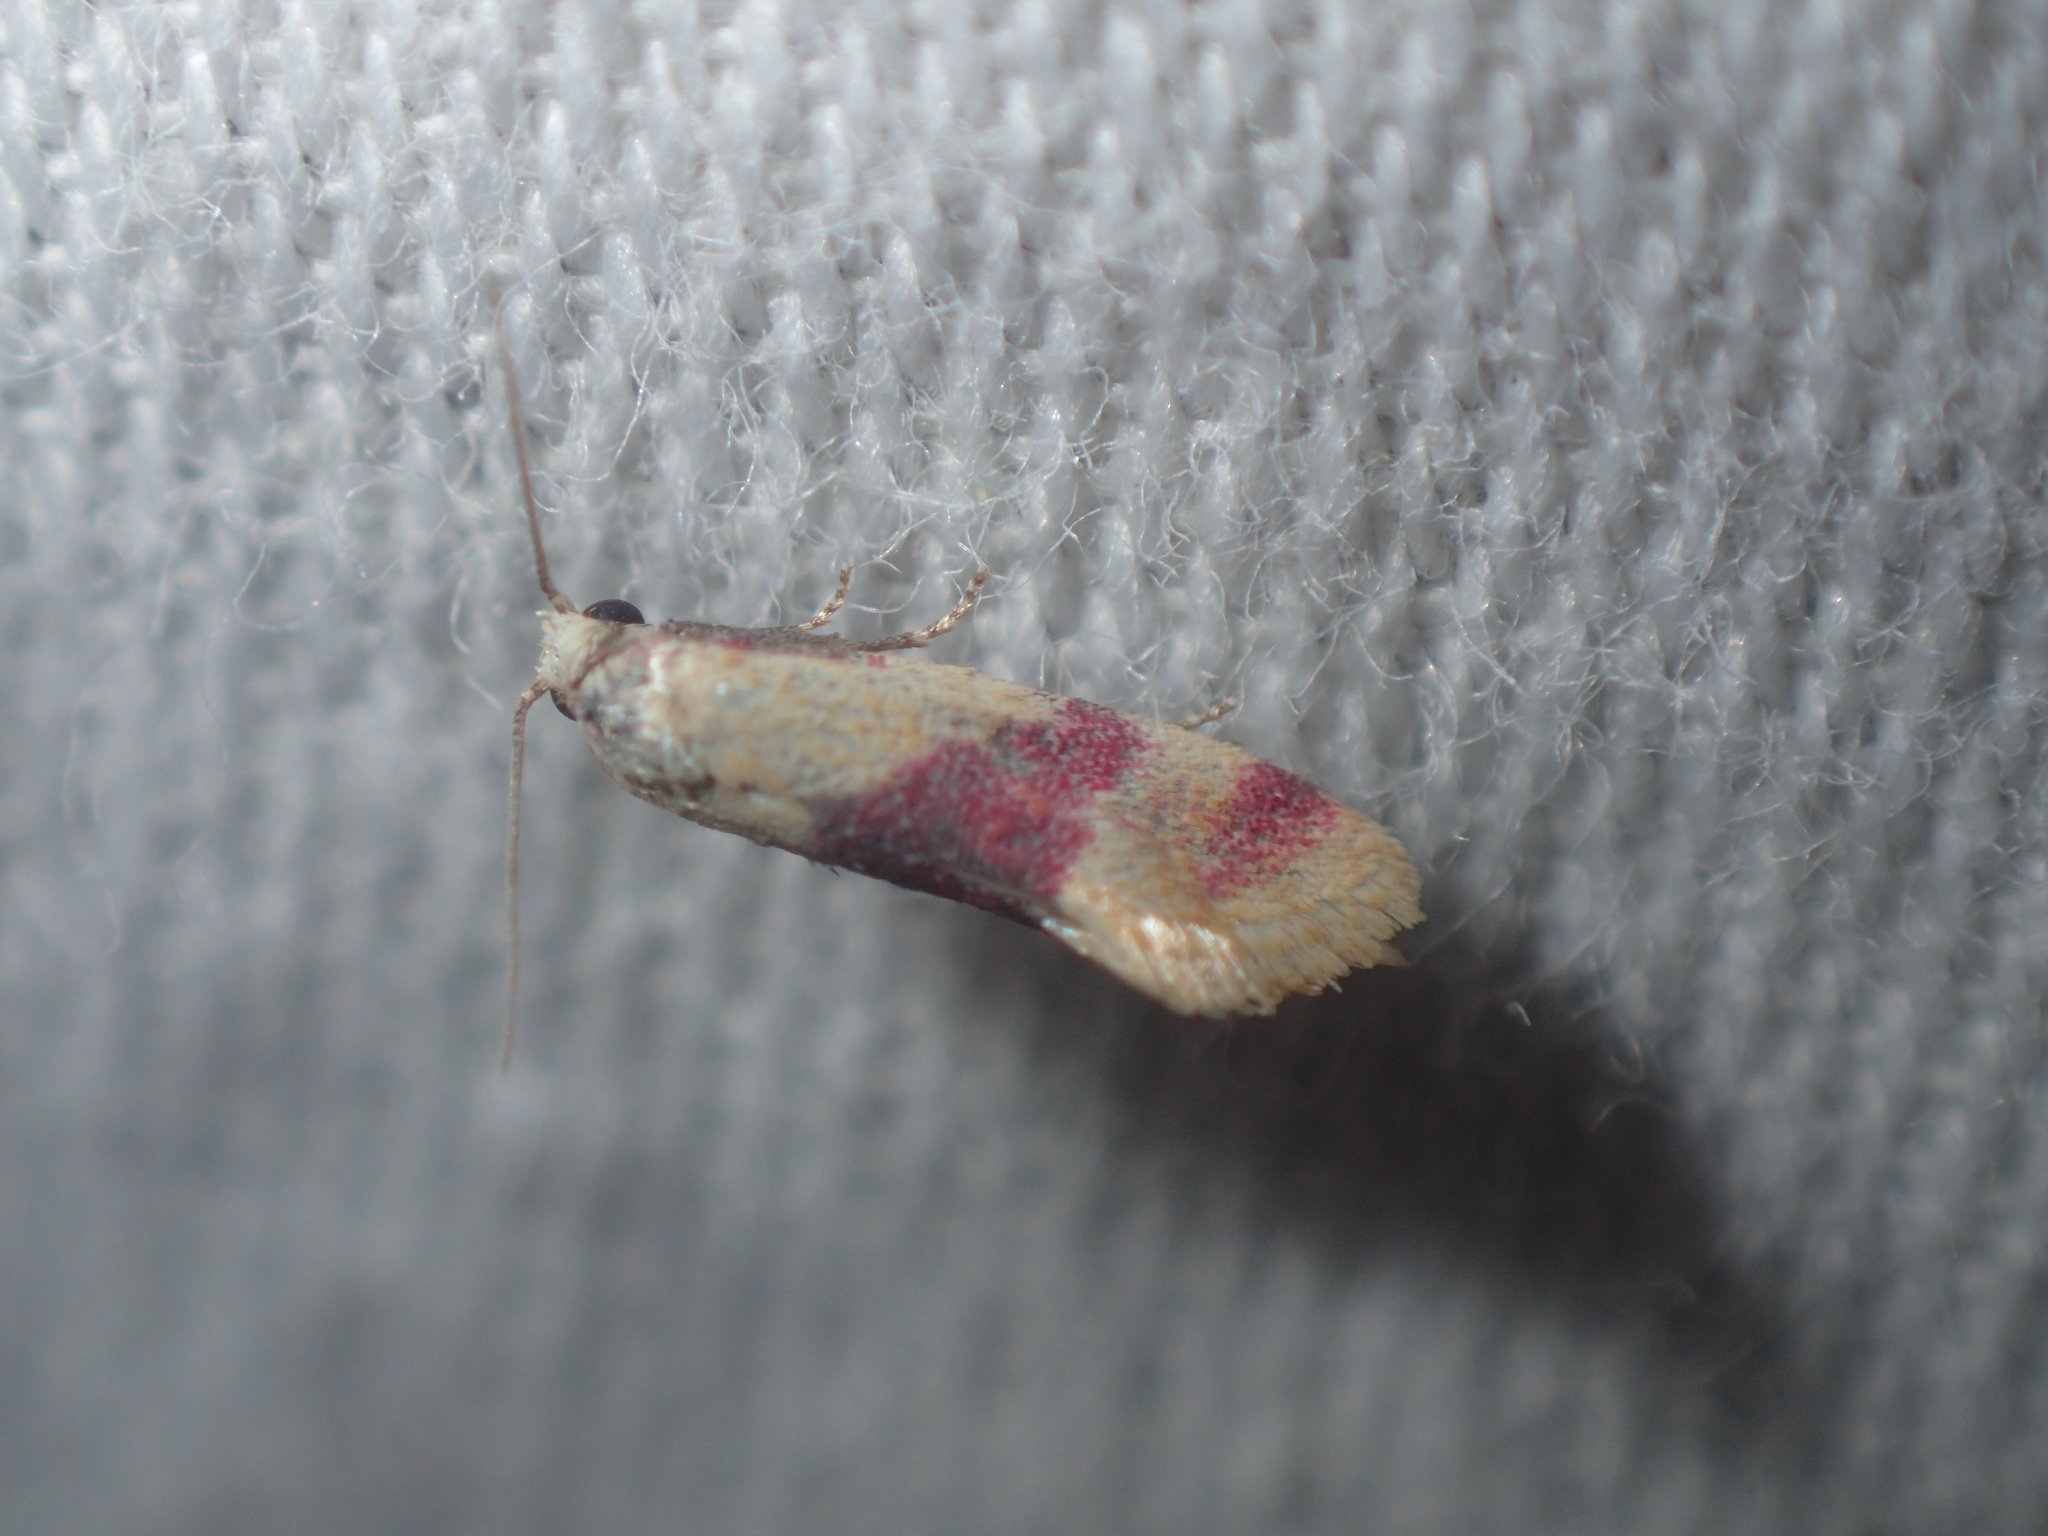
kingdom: Animalia
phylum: Arthropoda
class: Insecta
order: Lepidoptera
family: Tortricidae
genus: Diceratura
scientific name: Diceratura amaranthica
